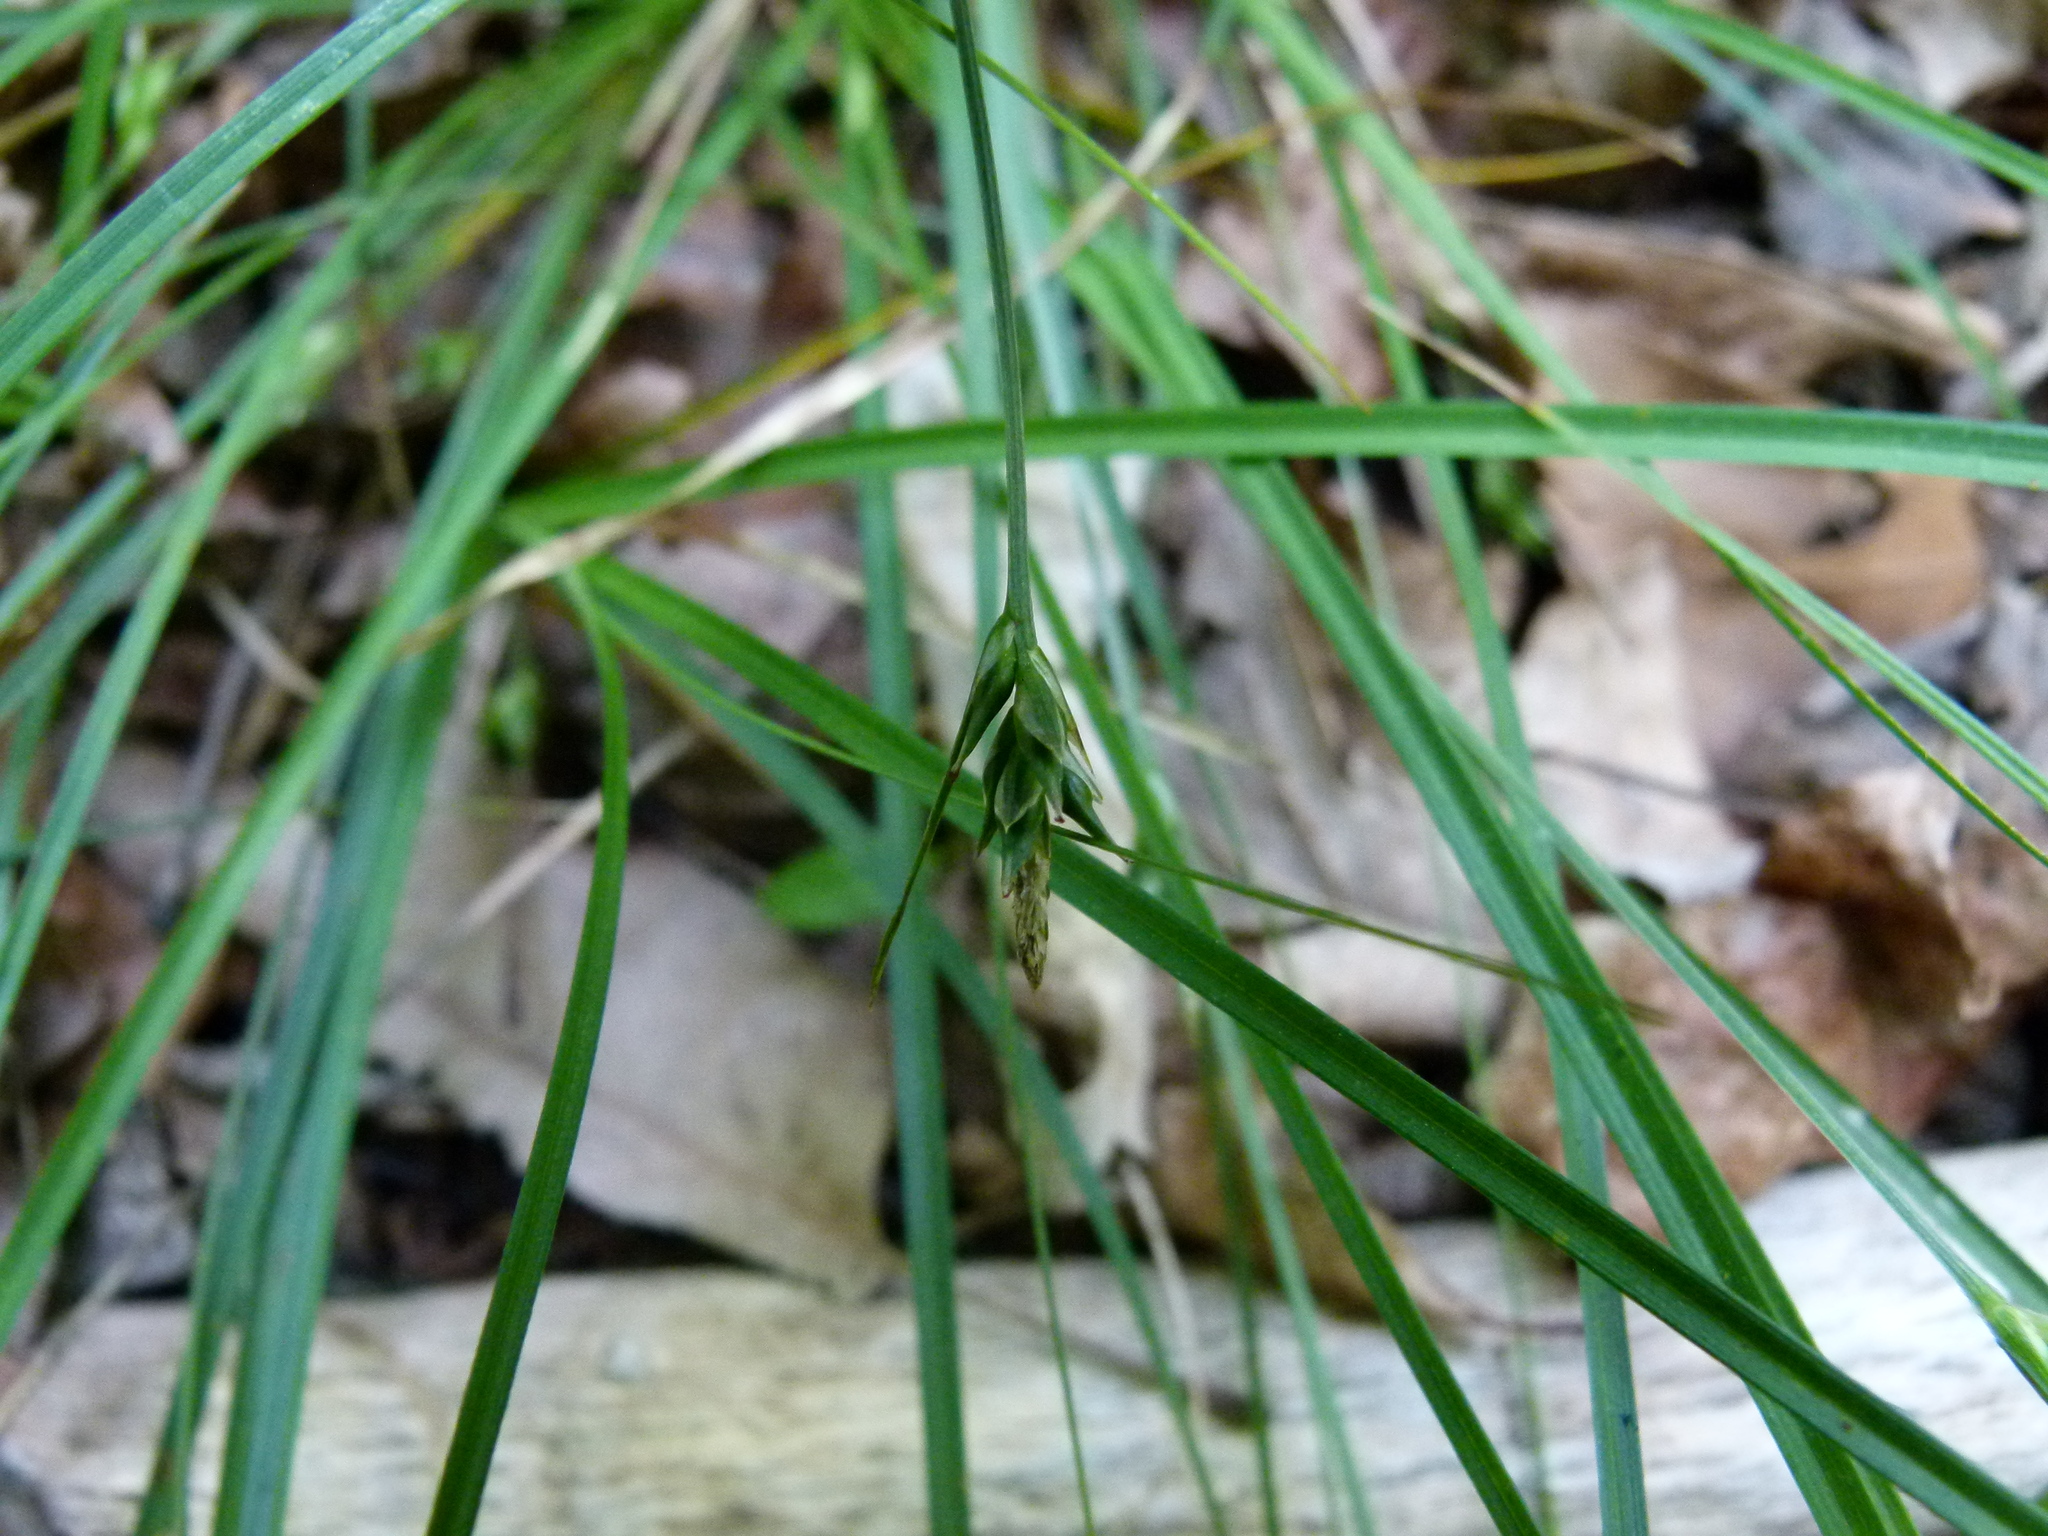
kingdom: Plantae
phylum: Tracheophyta
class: Liliopsida
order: Poales
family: Cyperaceae
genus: Carex
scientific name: Carex willdenowii
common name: Willdenow's sedge
